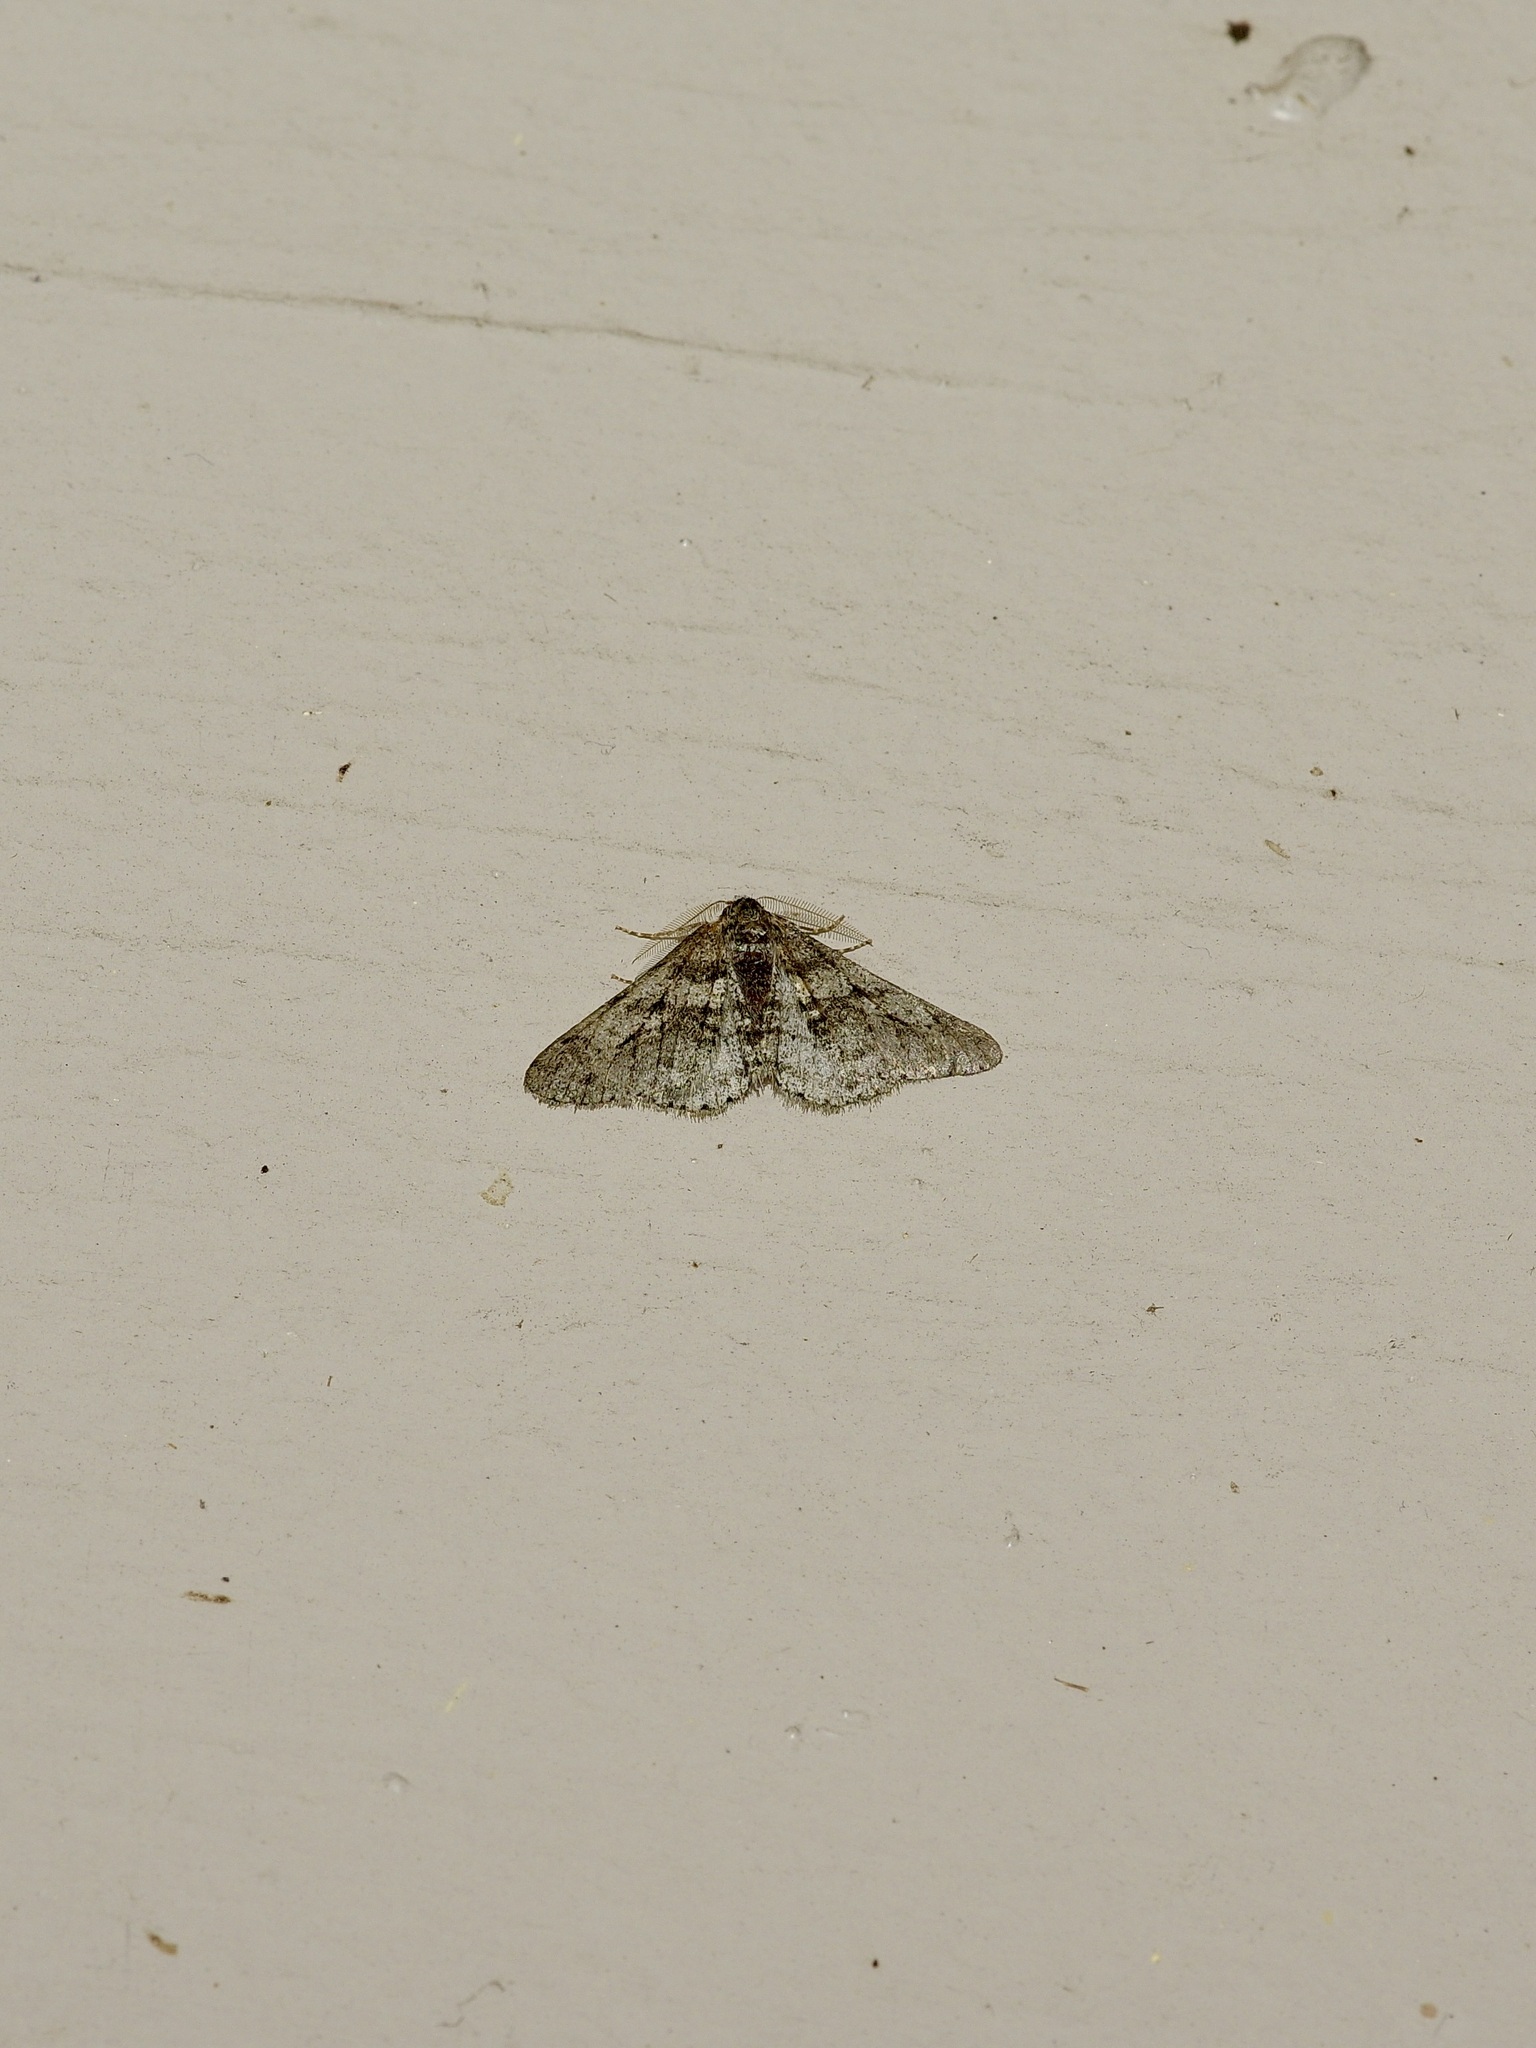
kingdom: Animalia
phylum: Arthropoda
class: Insecta
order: Lepidoptera
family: Geometridae
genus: Phigalia
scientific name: Phigalia titea
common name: Spiny looper
